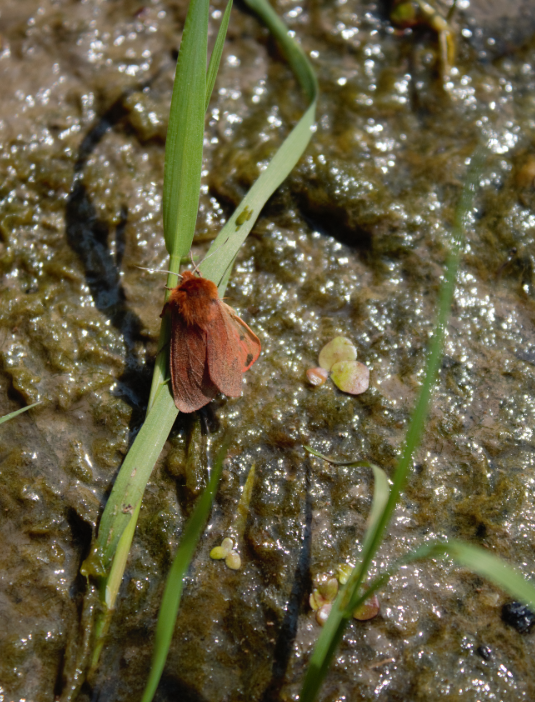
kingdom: Animalia
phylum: Arthropoda
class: Insecta
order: Lepidoptera
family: Erebidae
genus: Phragmatobia
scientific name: Phragmatobia fuliginosa
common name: Ruby tiger
